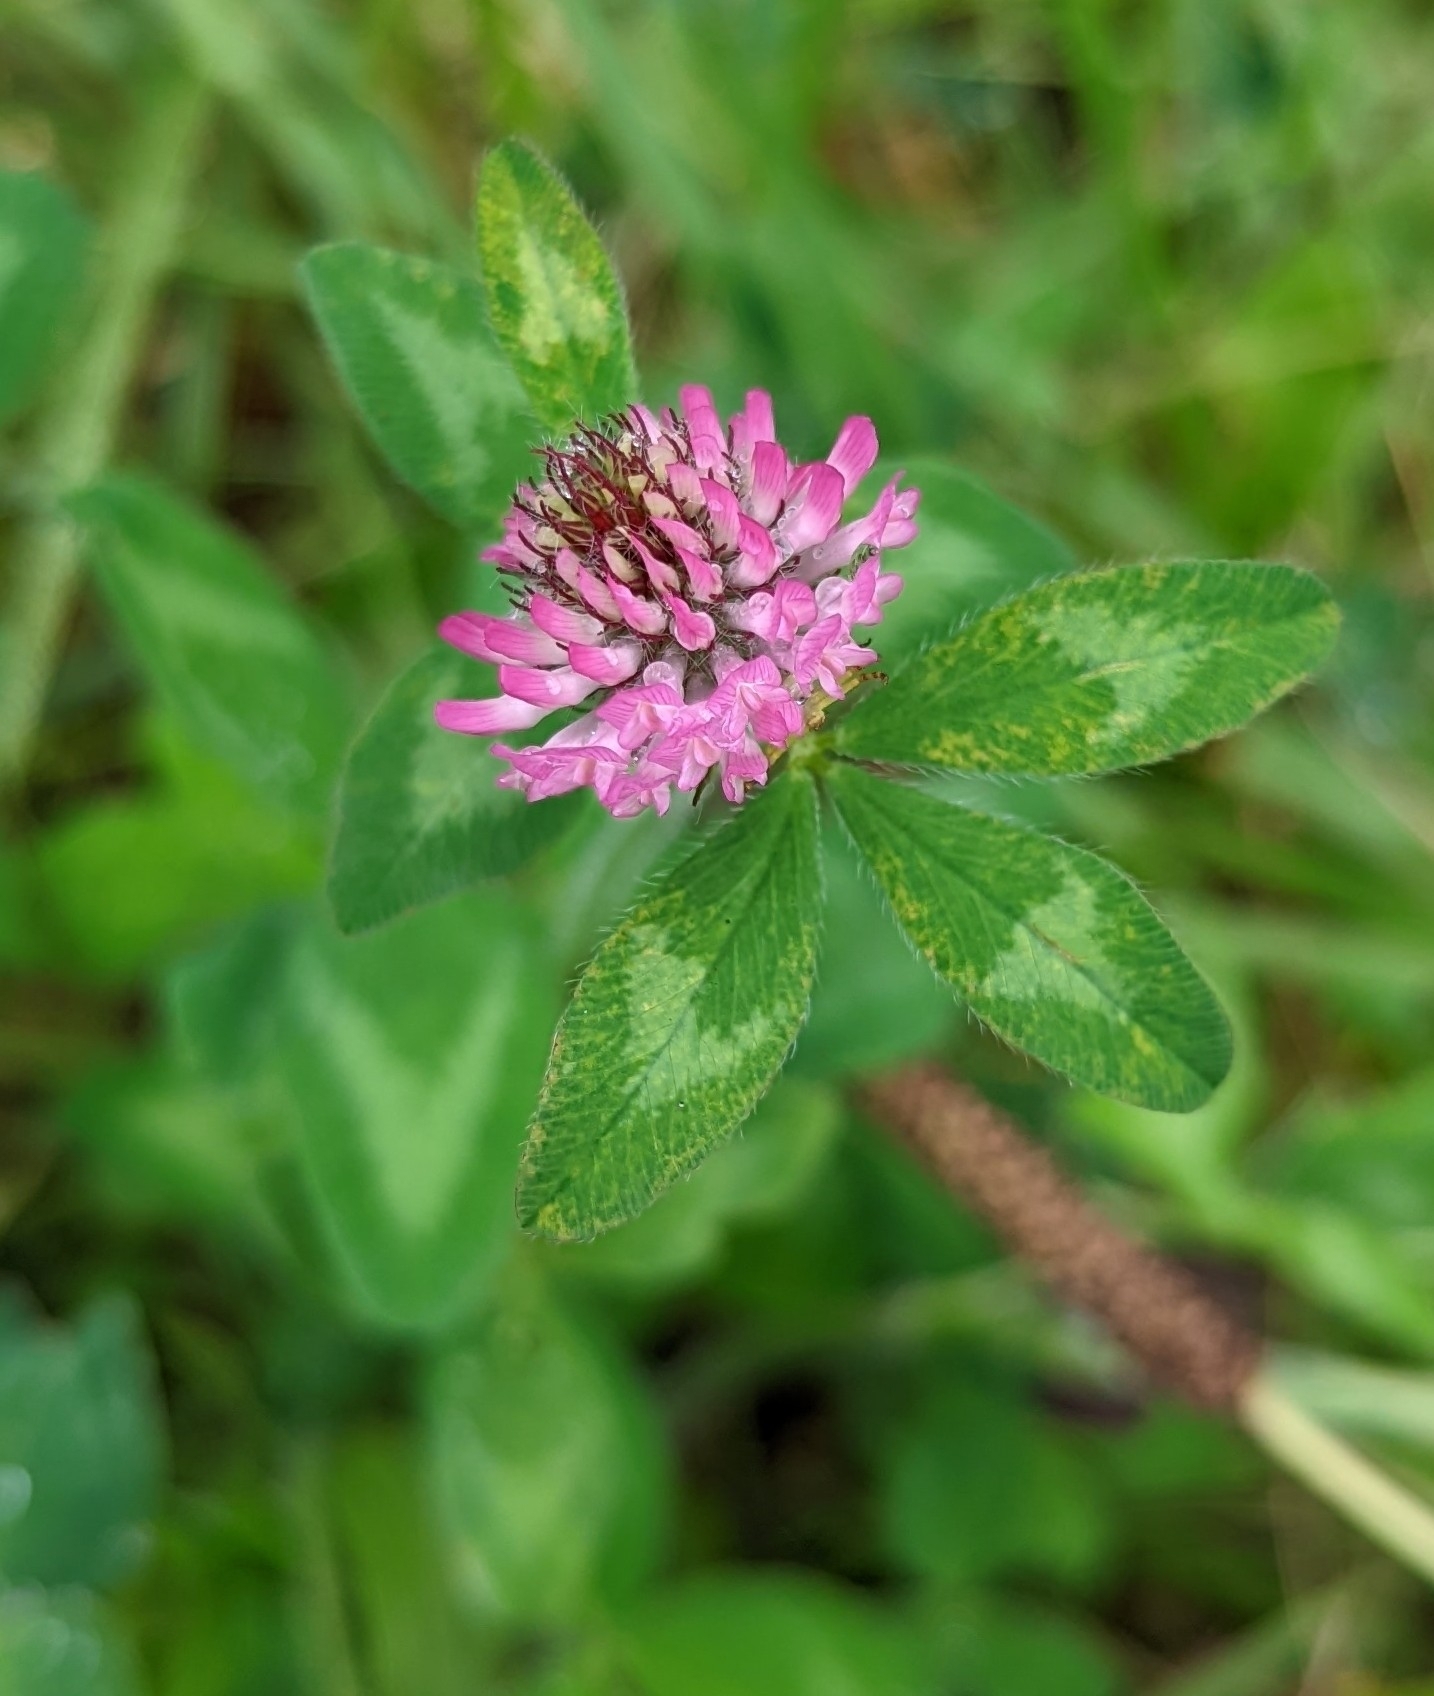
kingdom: Plantae
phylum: Tracheophyta
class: Magnoliopsida
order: Fabales
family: Fabaceae
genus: Trifolium
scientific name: Trifolium pratense
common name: Red clover
